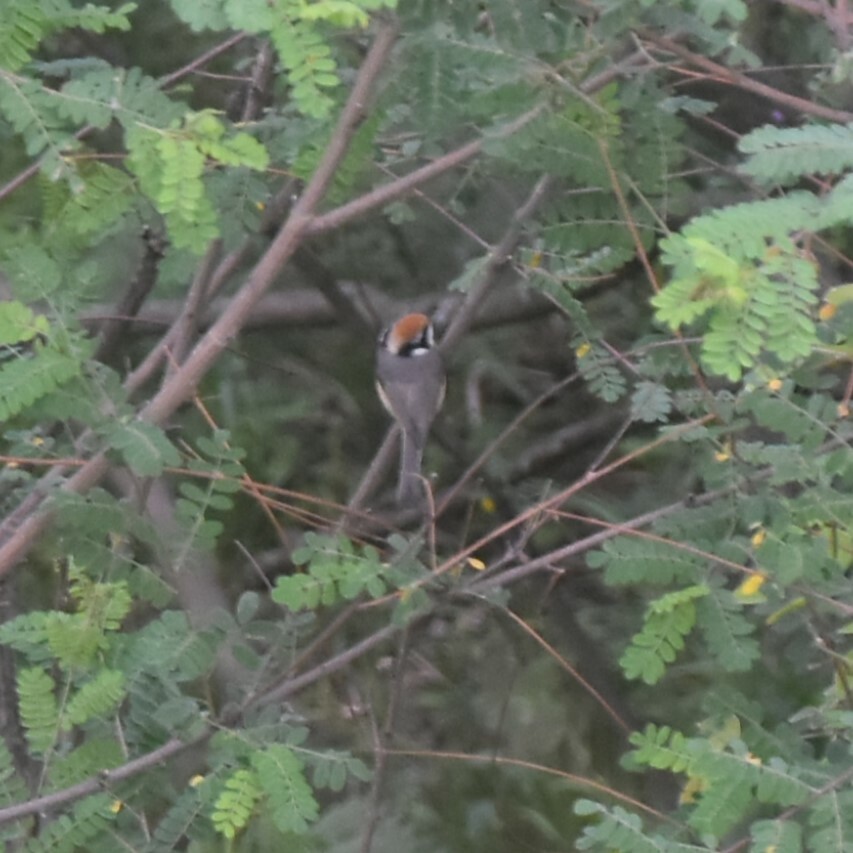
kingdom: Animalia
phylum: Chordata
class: Aves
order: Passeriformes
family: Aegithalidae
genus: Aegithalos
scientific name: Aegithalos concinnus
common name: Black-throated bushtit
